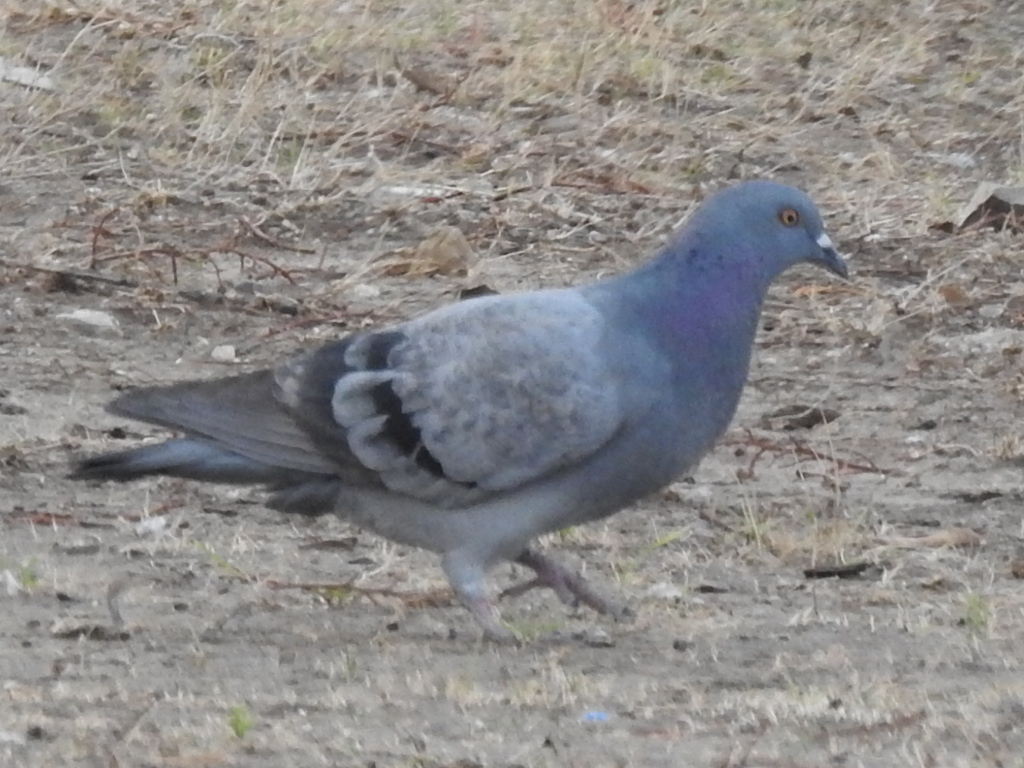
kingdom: Animalia
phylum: Chordata
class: Aves
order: Columbiformes
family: Columbidae
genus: Columba
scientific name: Columba livia
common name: Rock pigeon
